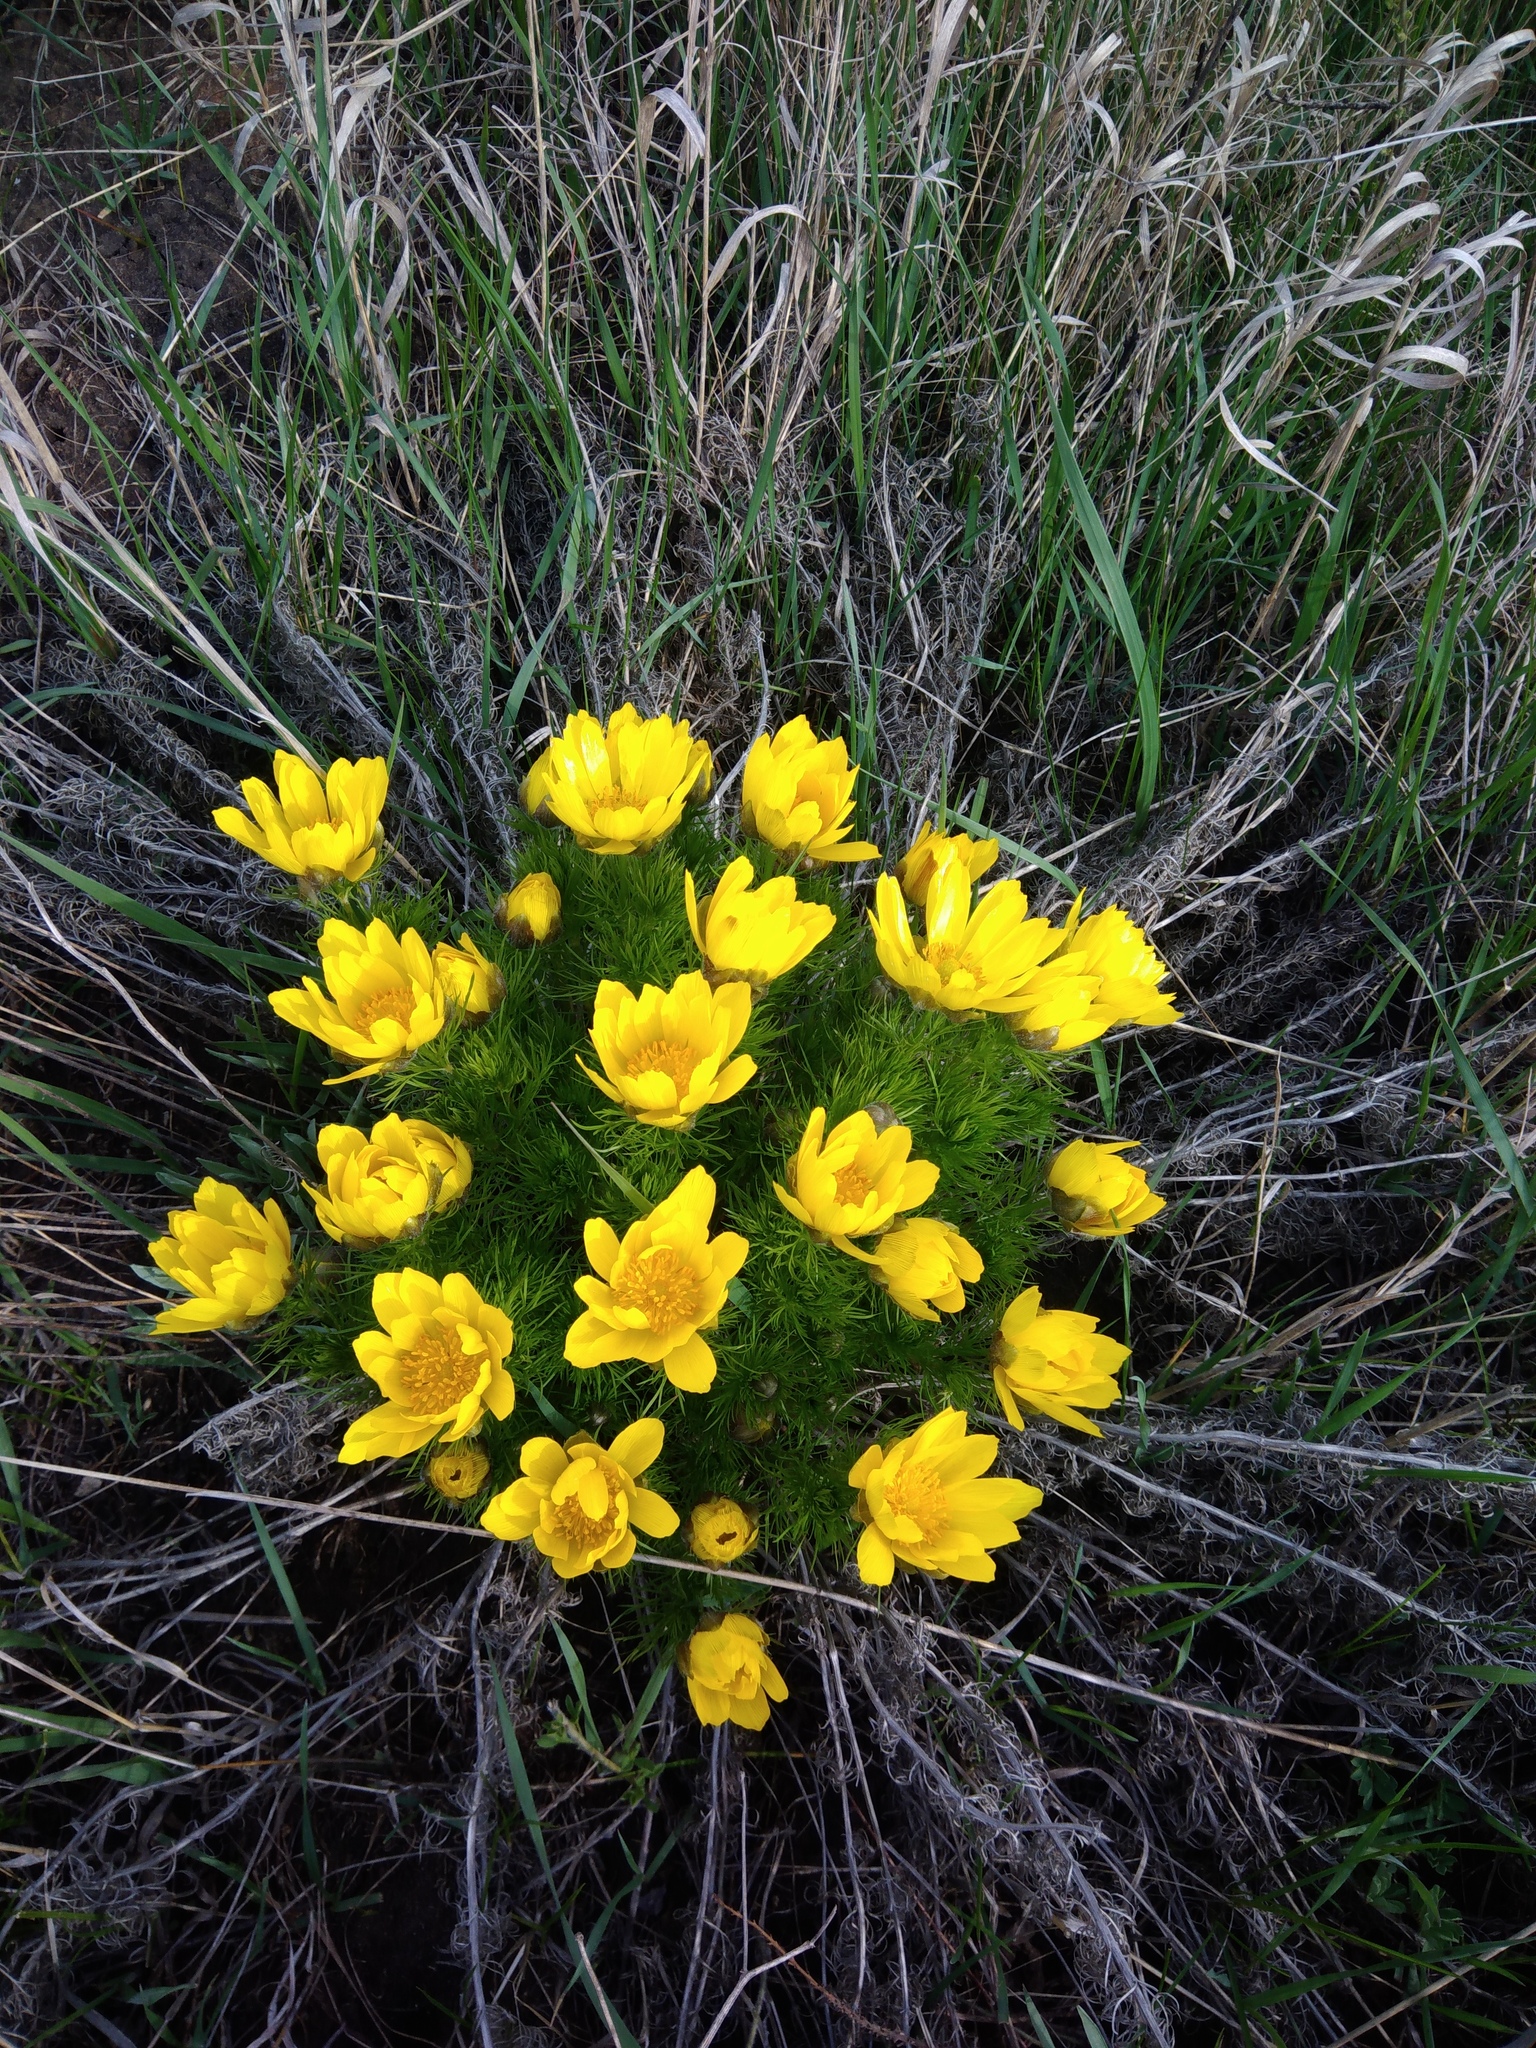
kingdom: Plantae
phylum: Tracheophyta
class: Magnoliopsida
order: Ranunculales
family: Ranunculaceae
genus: Adonis
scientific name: Adonis vernalis
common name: Yellow pheasants-eye
